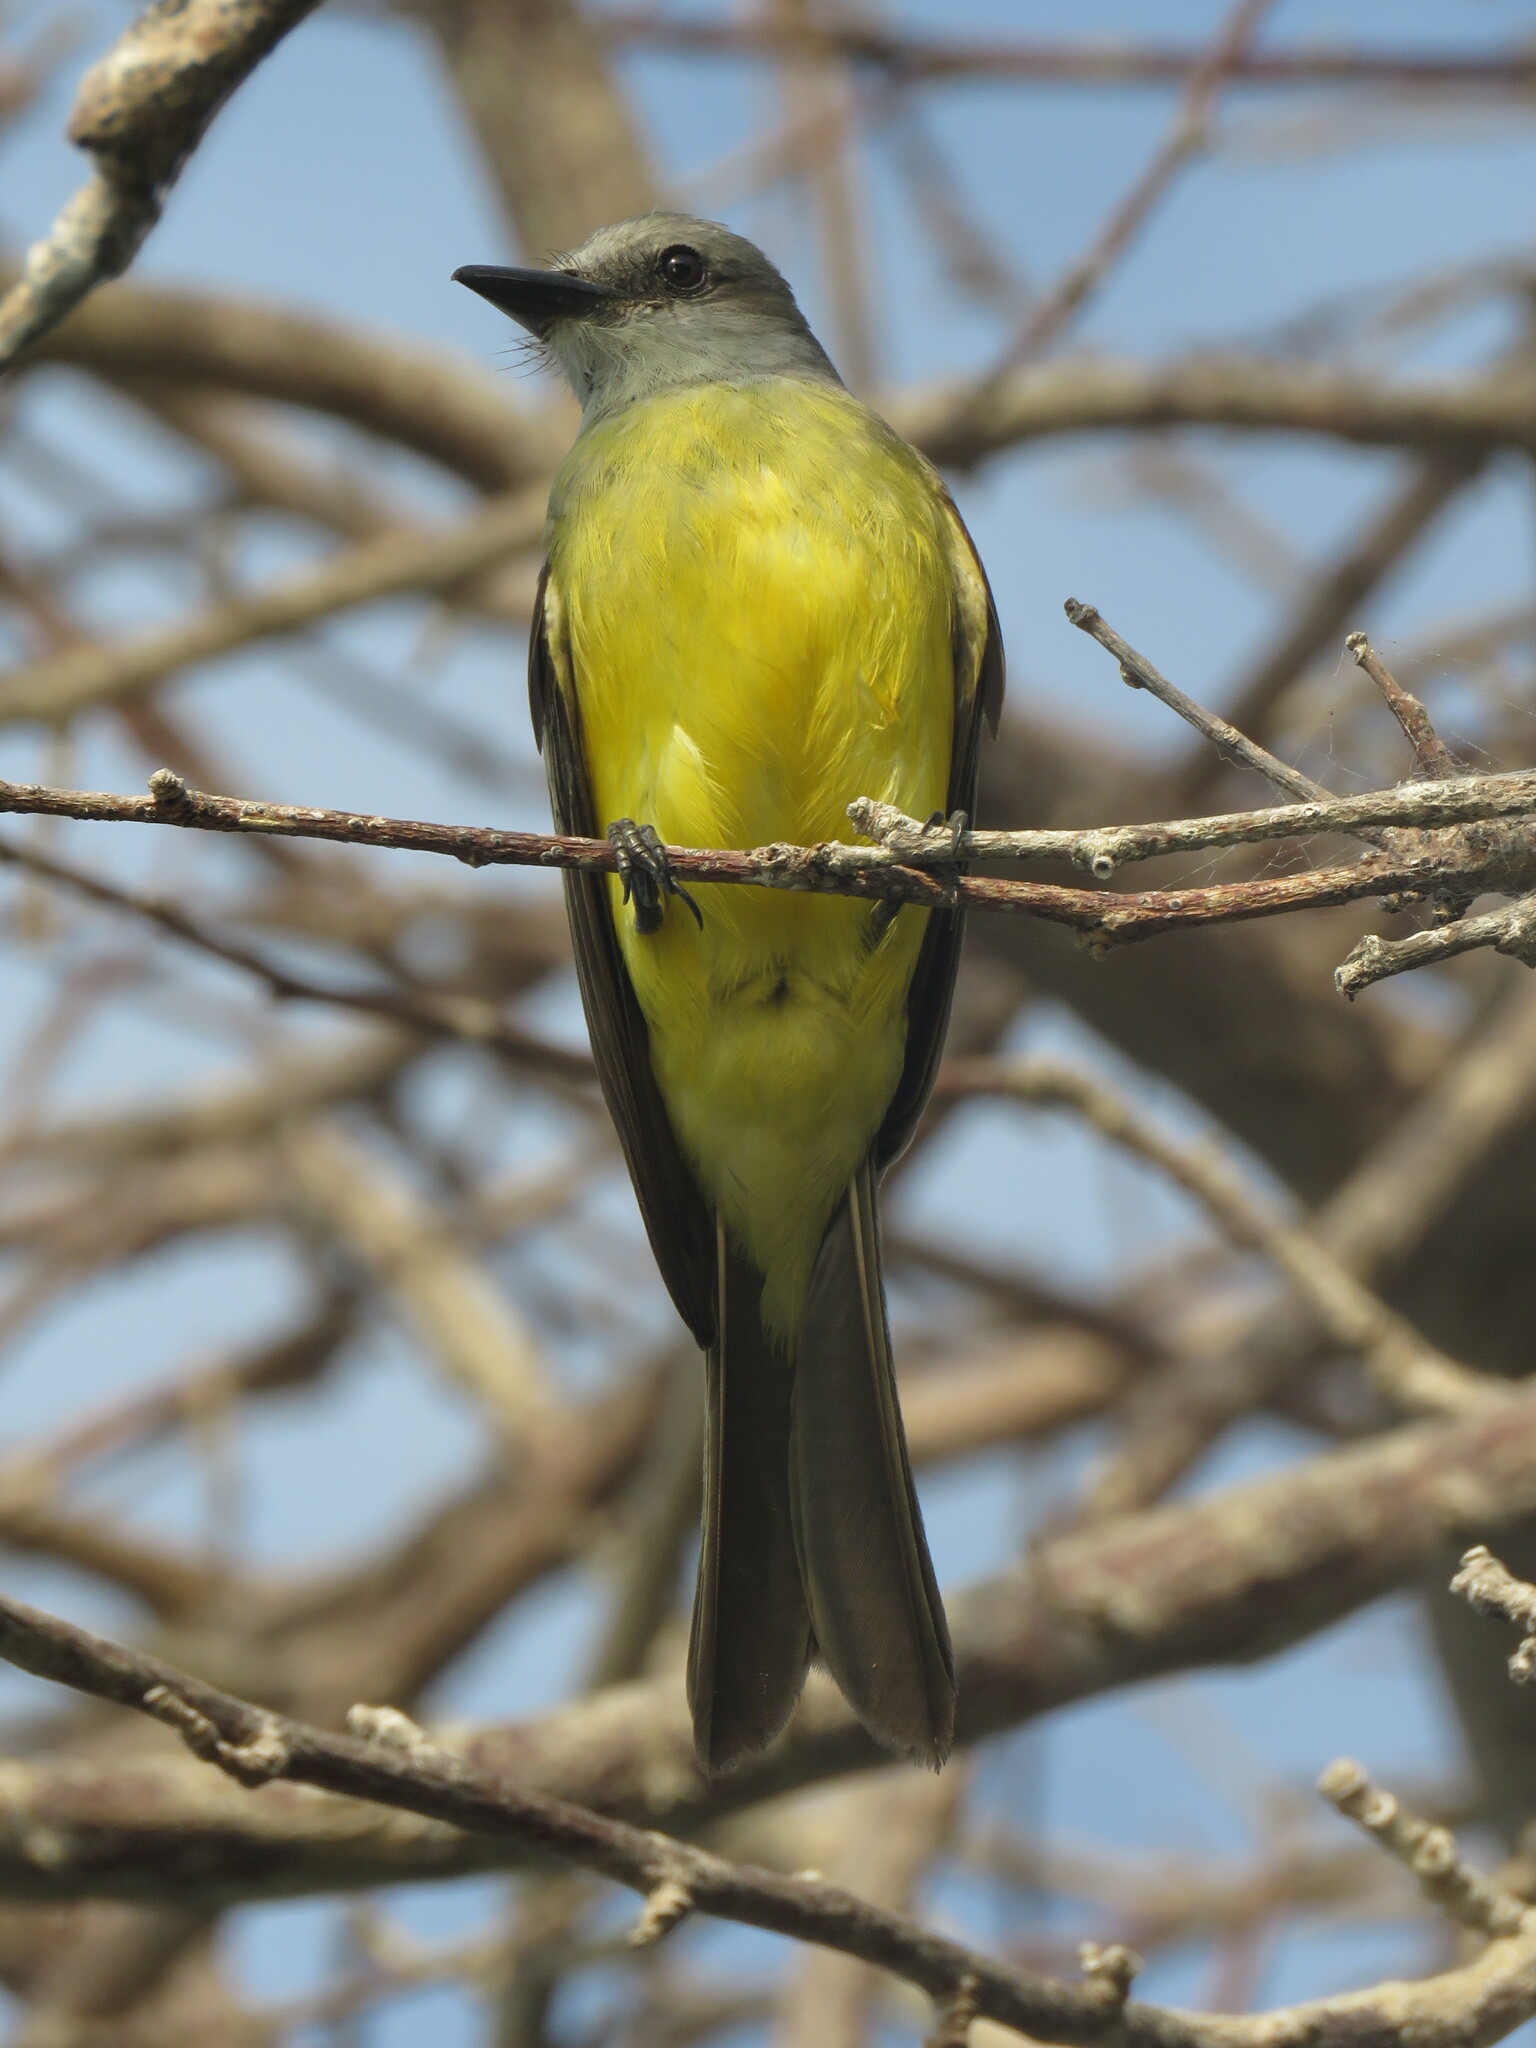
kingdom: Animalia
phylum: Chordata
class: Aves
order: Passeriformes
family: Tyrannidae
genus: Tyrannus
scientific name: Tyrannus melancholicus
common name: Tropical kingbird
